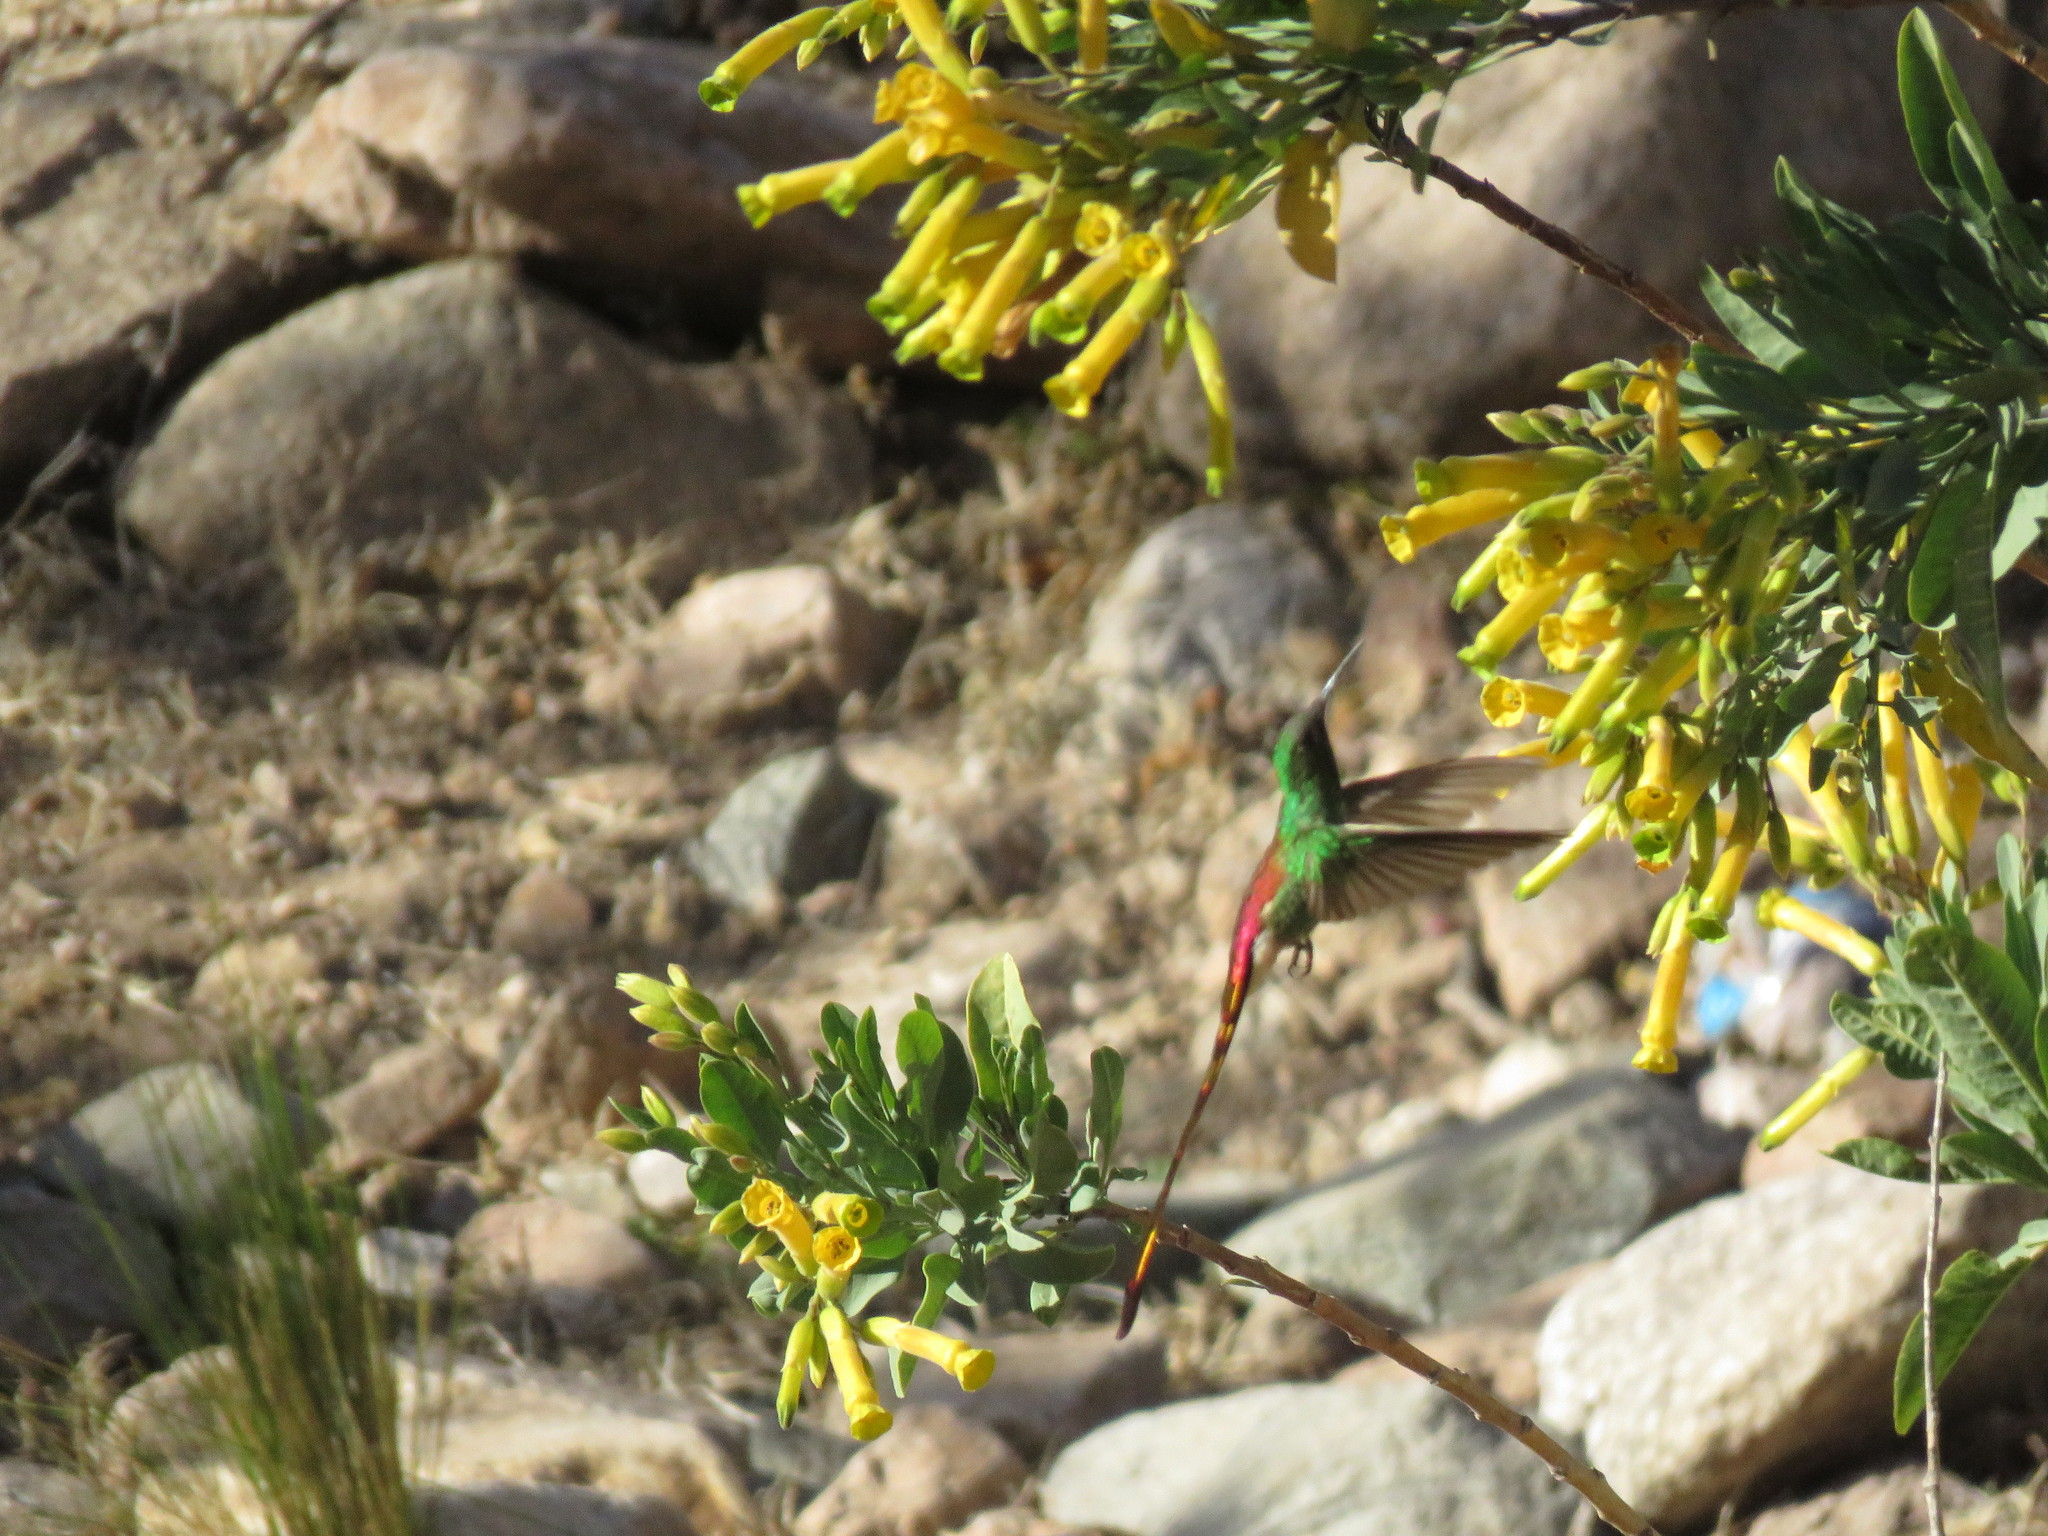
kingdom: Animalia
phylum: Chordata
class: Aves
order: Apodiformes
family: Trochilidae
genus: Sappho
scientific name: Sappho sparganurus
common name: Red-tailed comet
